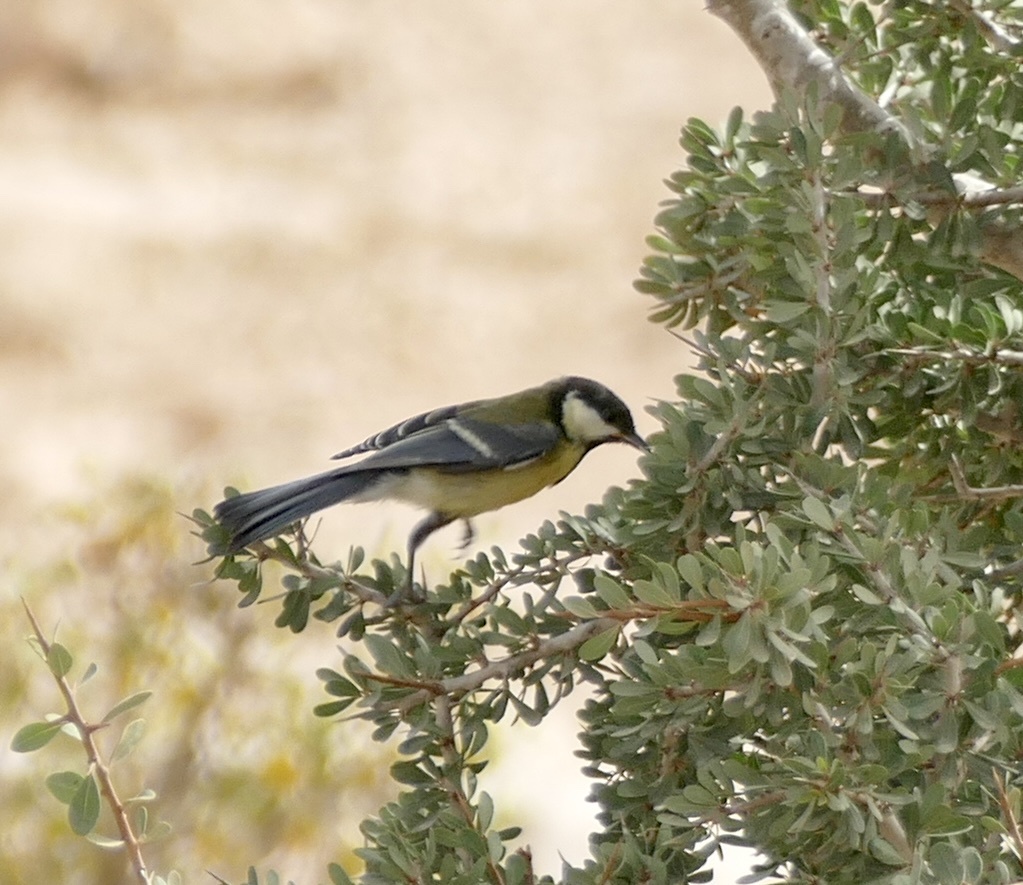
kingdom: Animalia
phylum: Chordata
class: Aves
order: Passeriformes
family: Paridae
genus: Parus
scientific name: Parus major
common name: Great tit
